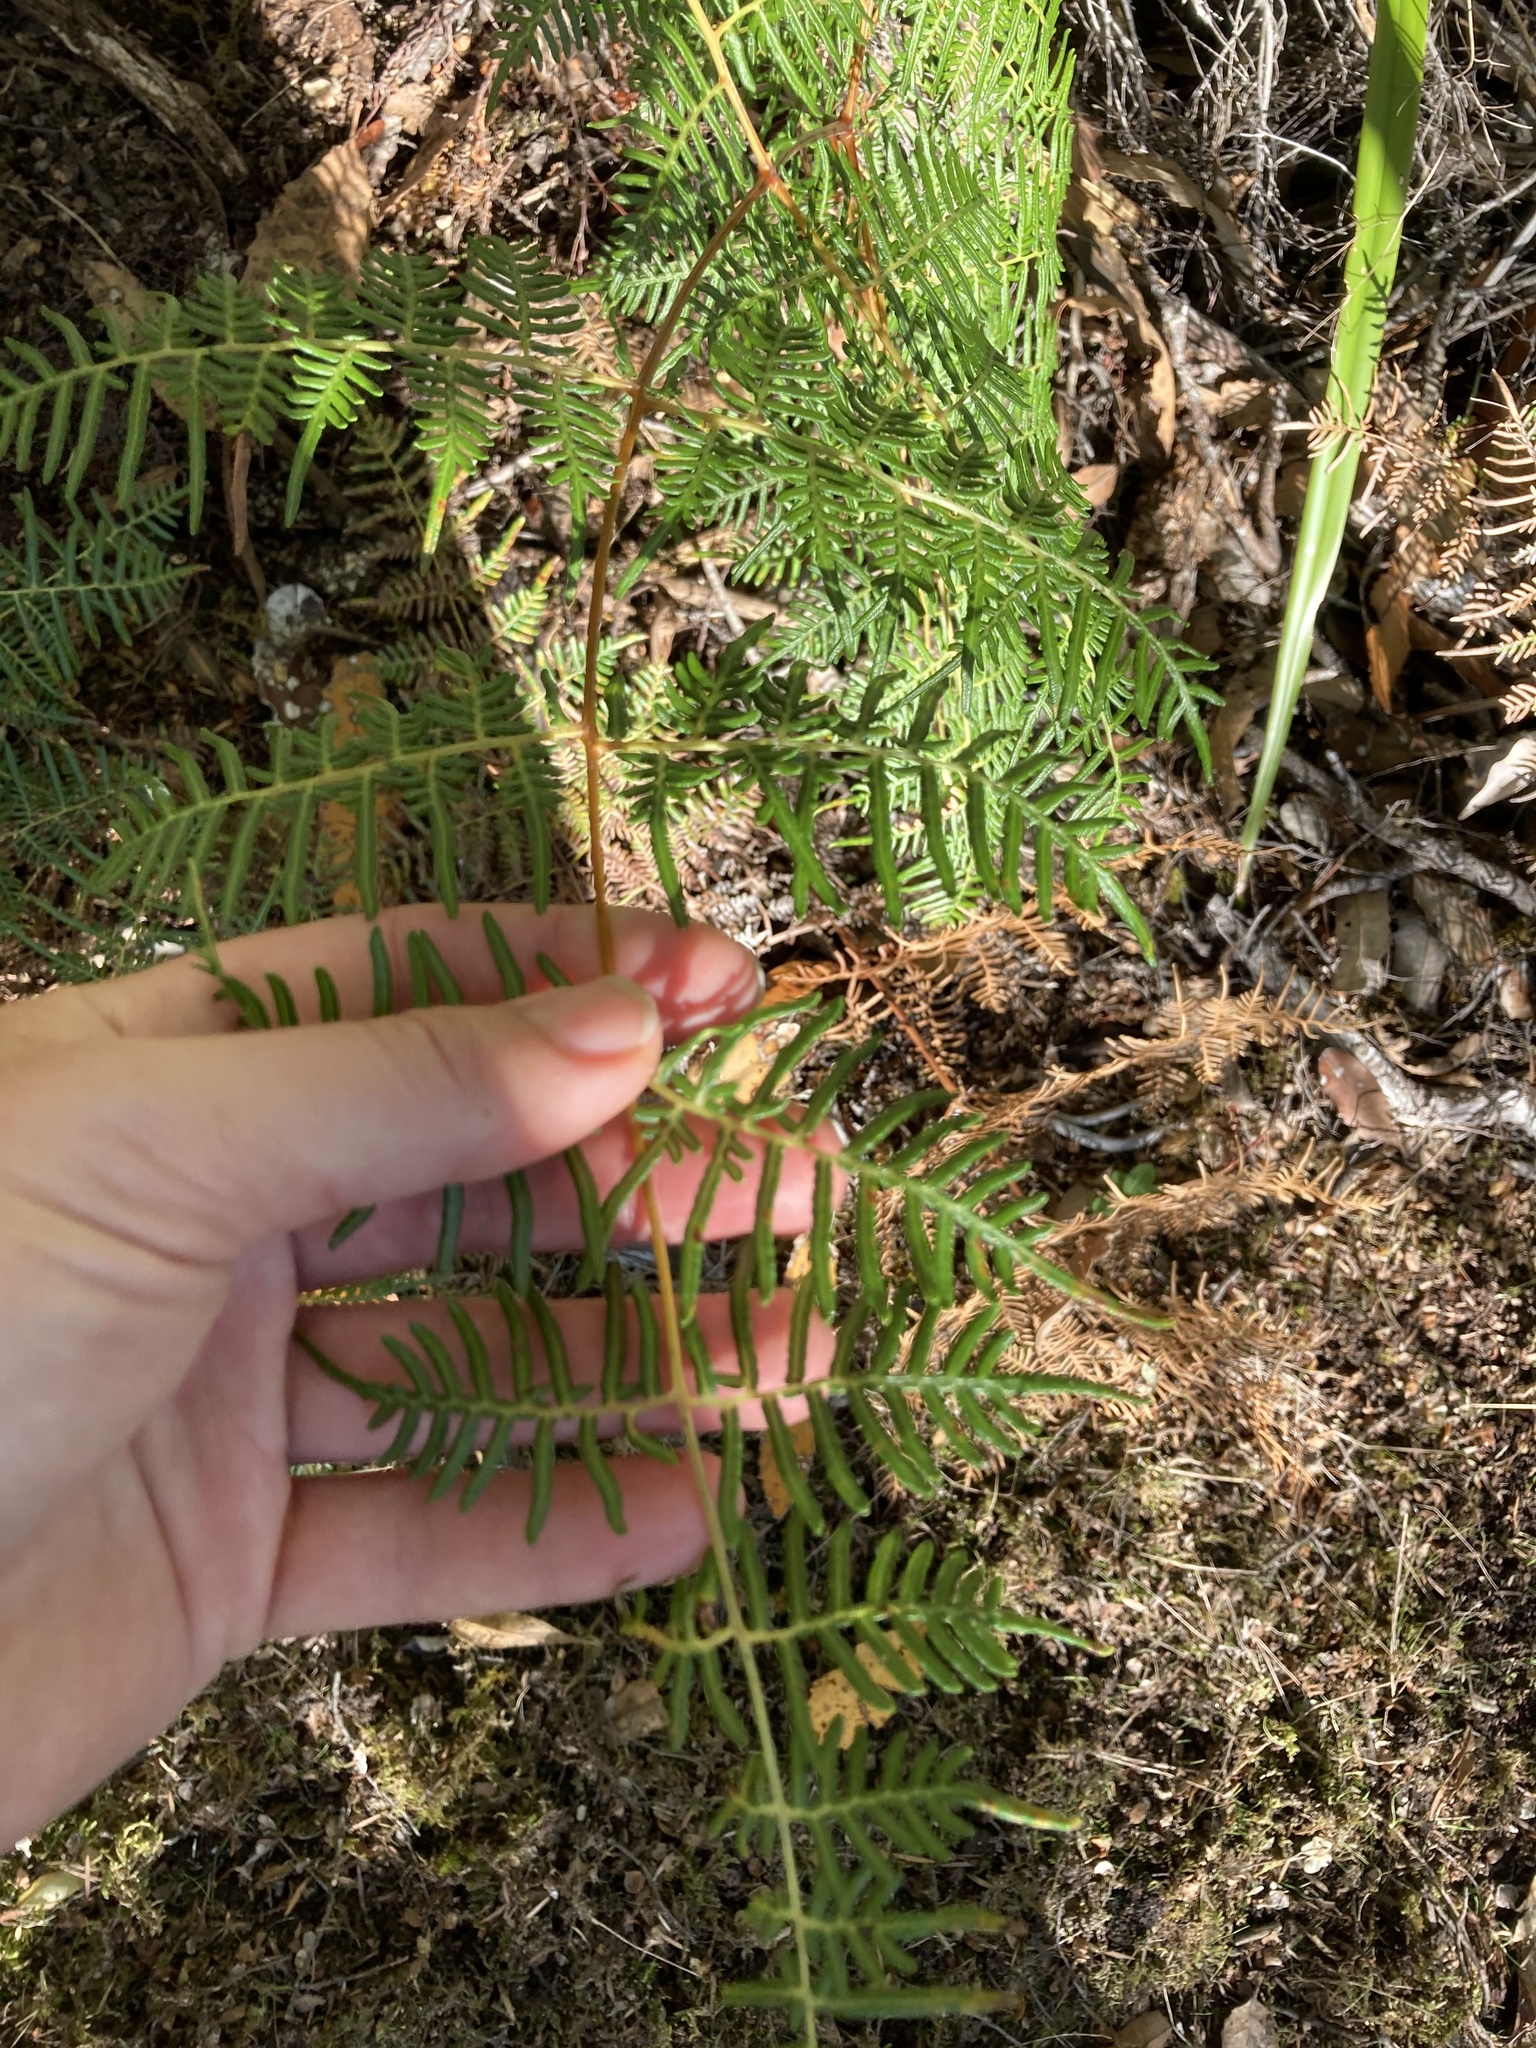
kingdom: Plantae
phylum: Tracheophyta
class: Polypodiopsida
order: Polypodiales
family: Dennstaedtiaceae
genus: Pteridium
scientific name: Pteridium esculentum
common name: Bracken fern
